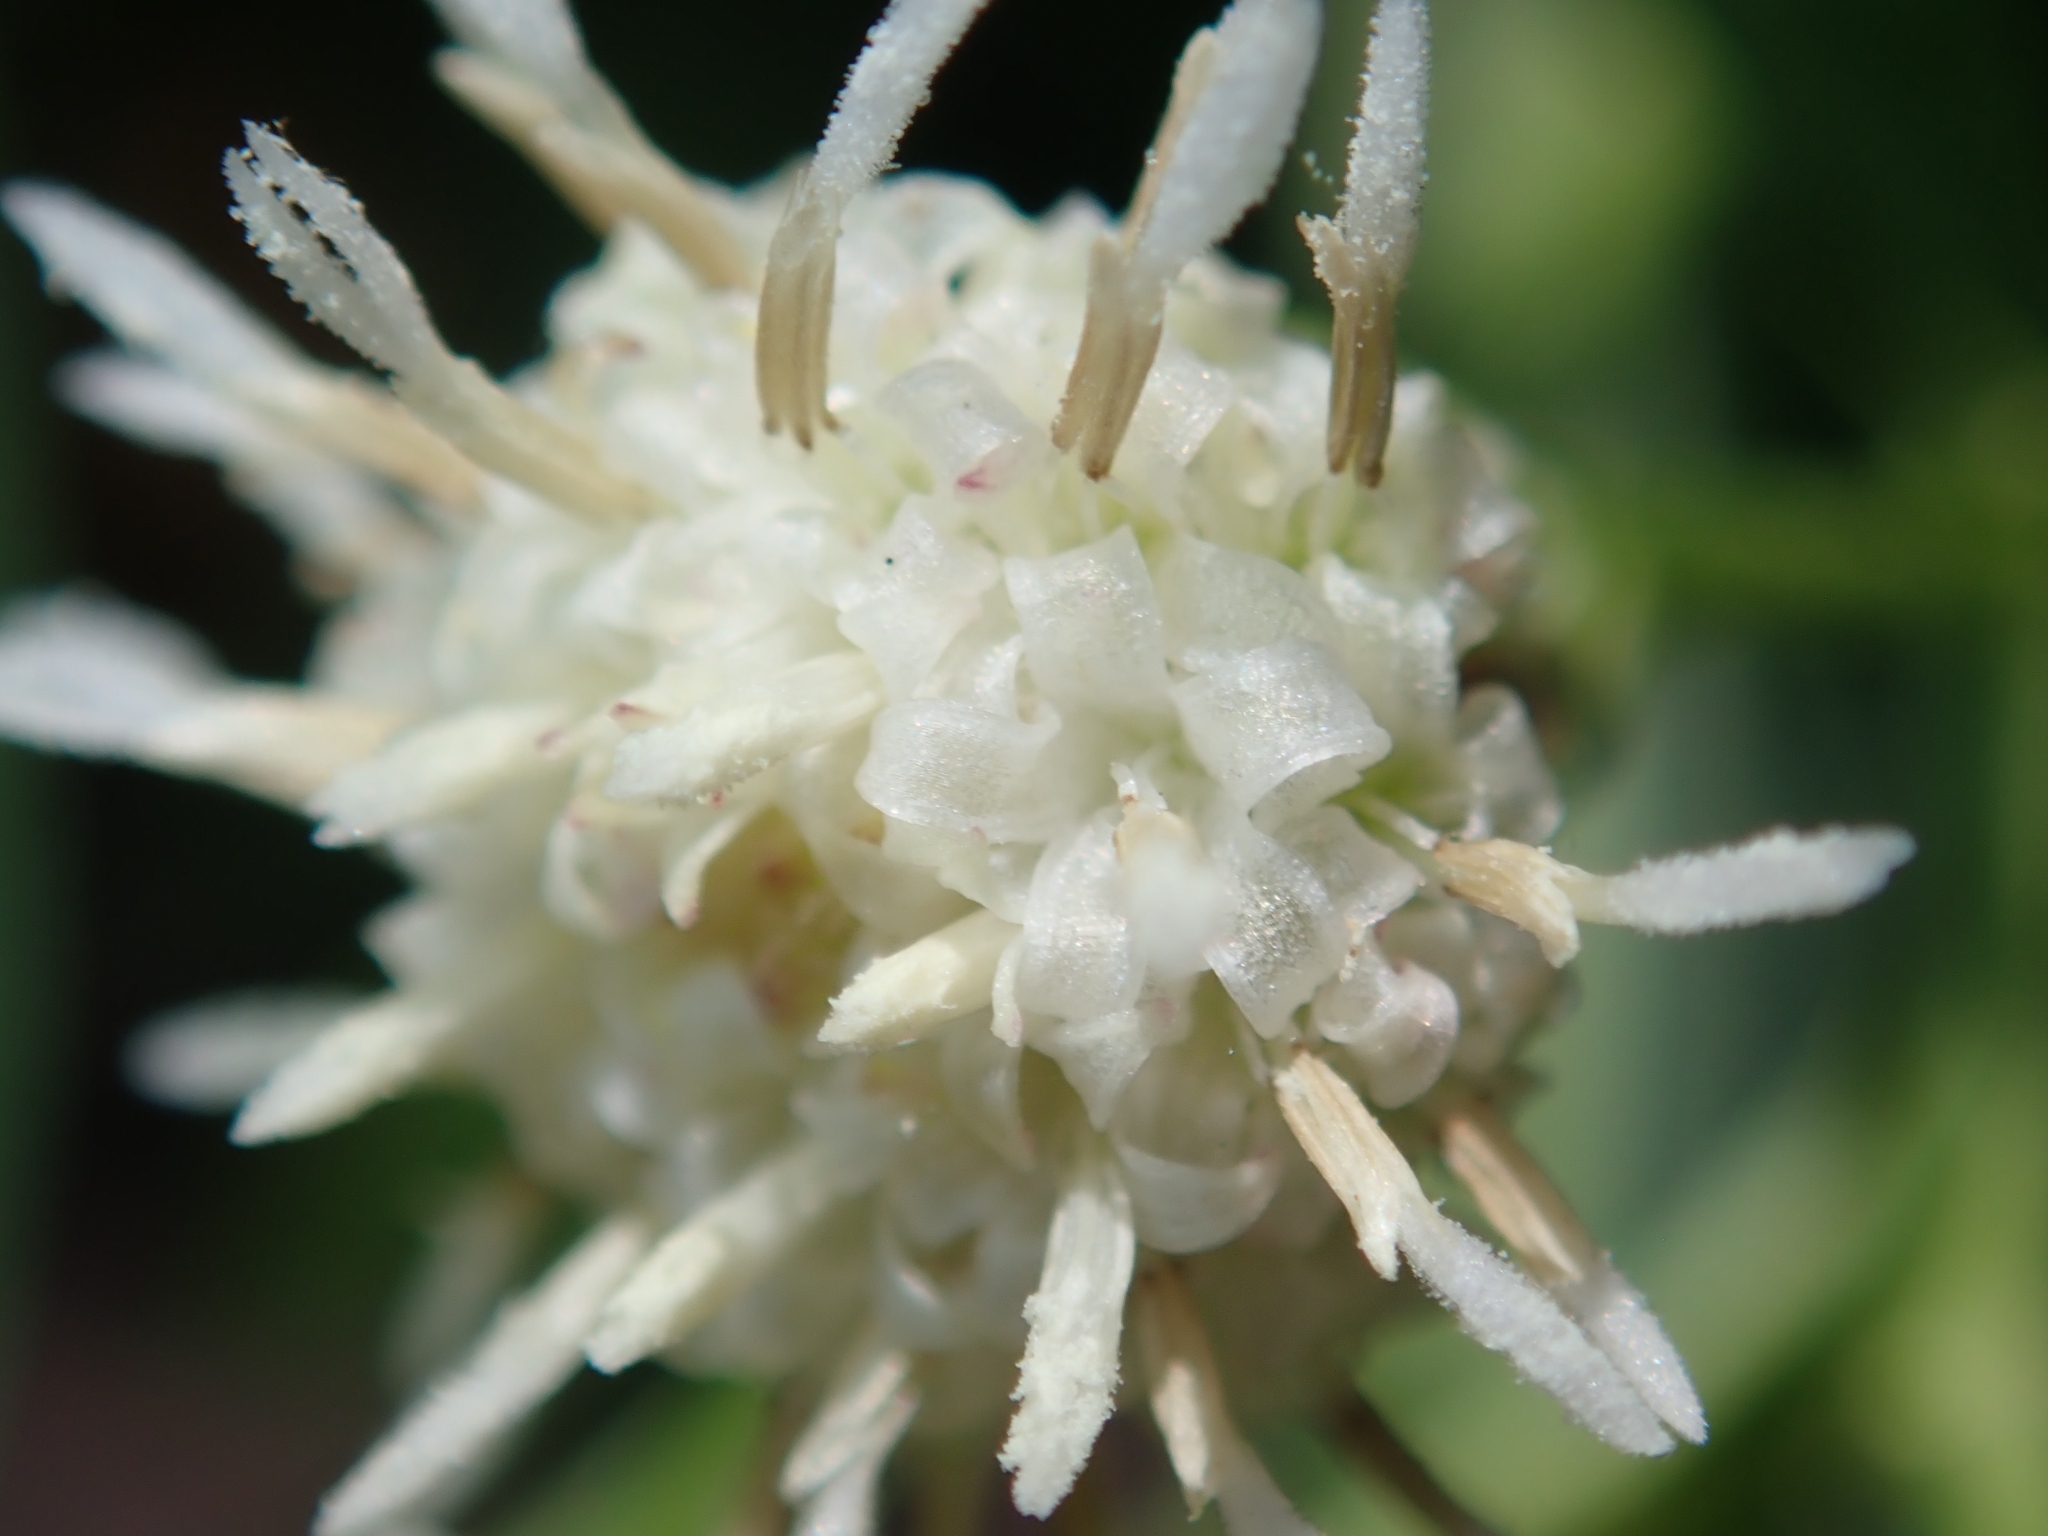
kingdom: Plantae
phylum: Tracheophyta
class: Magnoliopsida
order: Asterales
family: Asteraceae
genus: Baccharis
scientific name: Baccharis salicifolia
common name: Sticky baccharis
